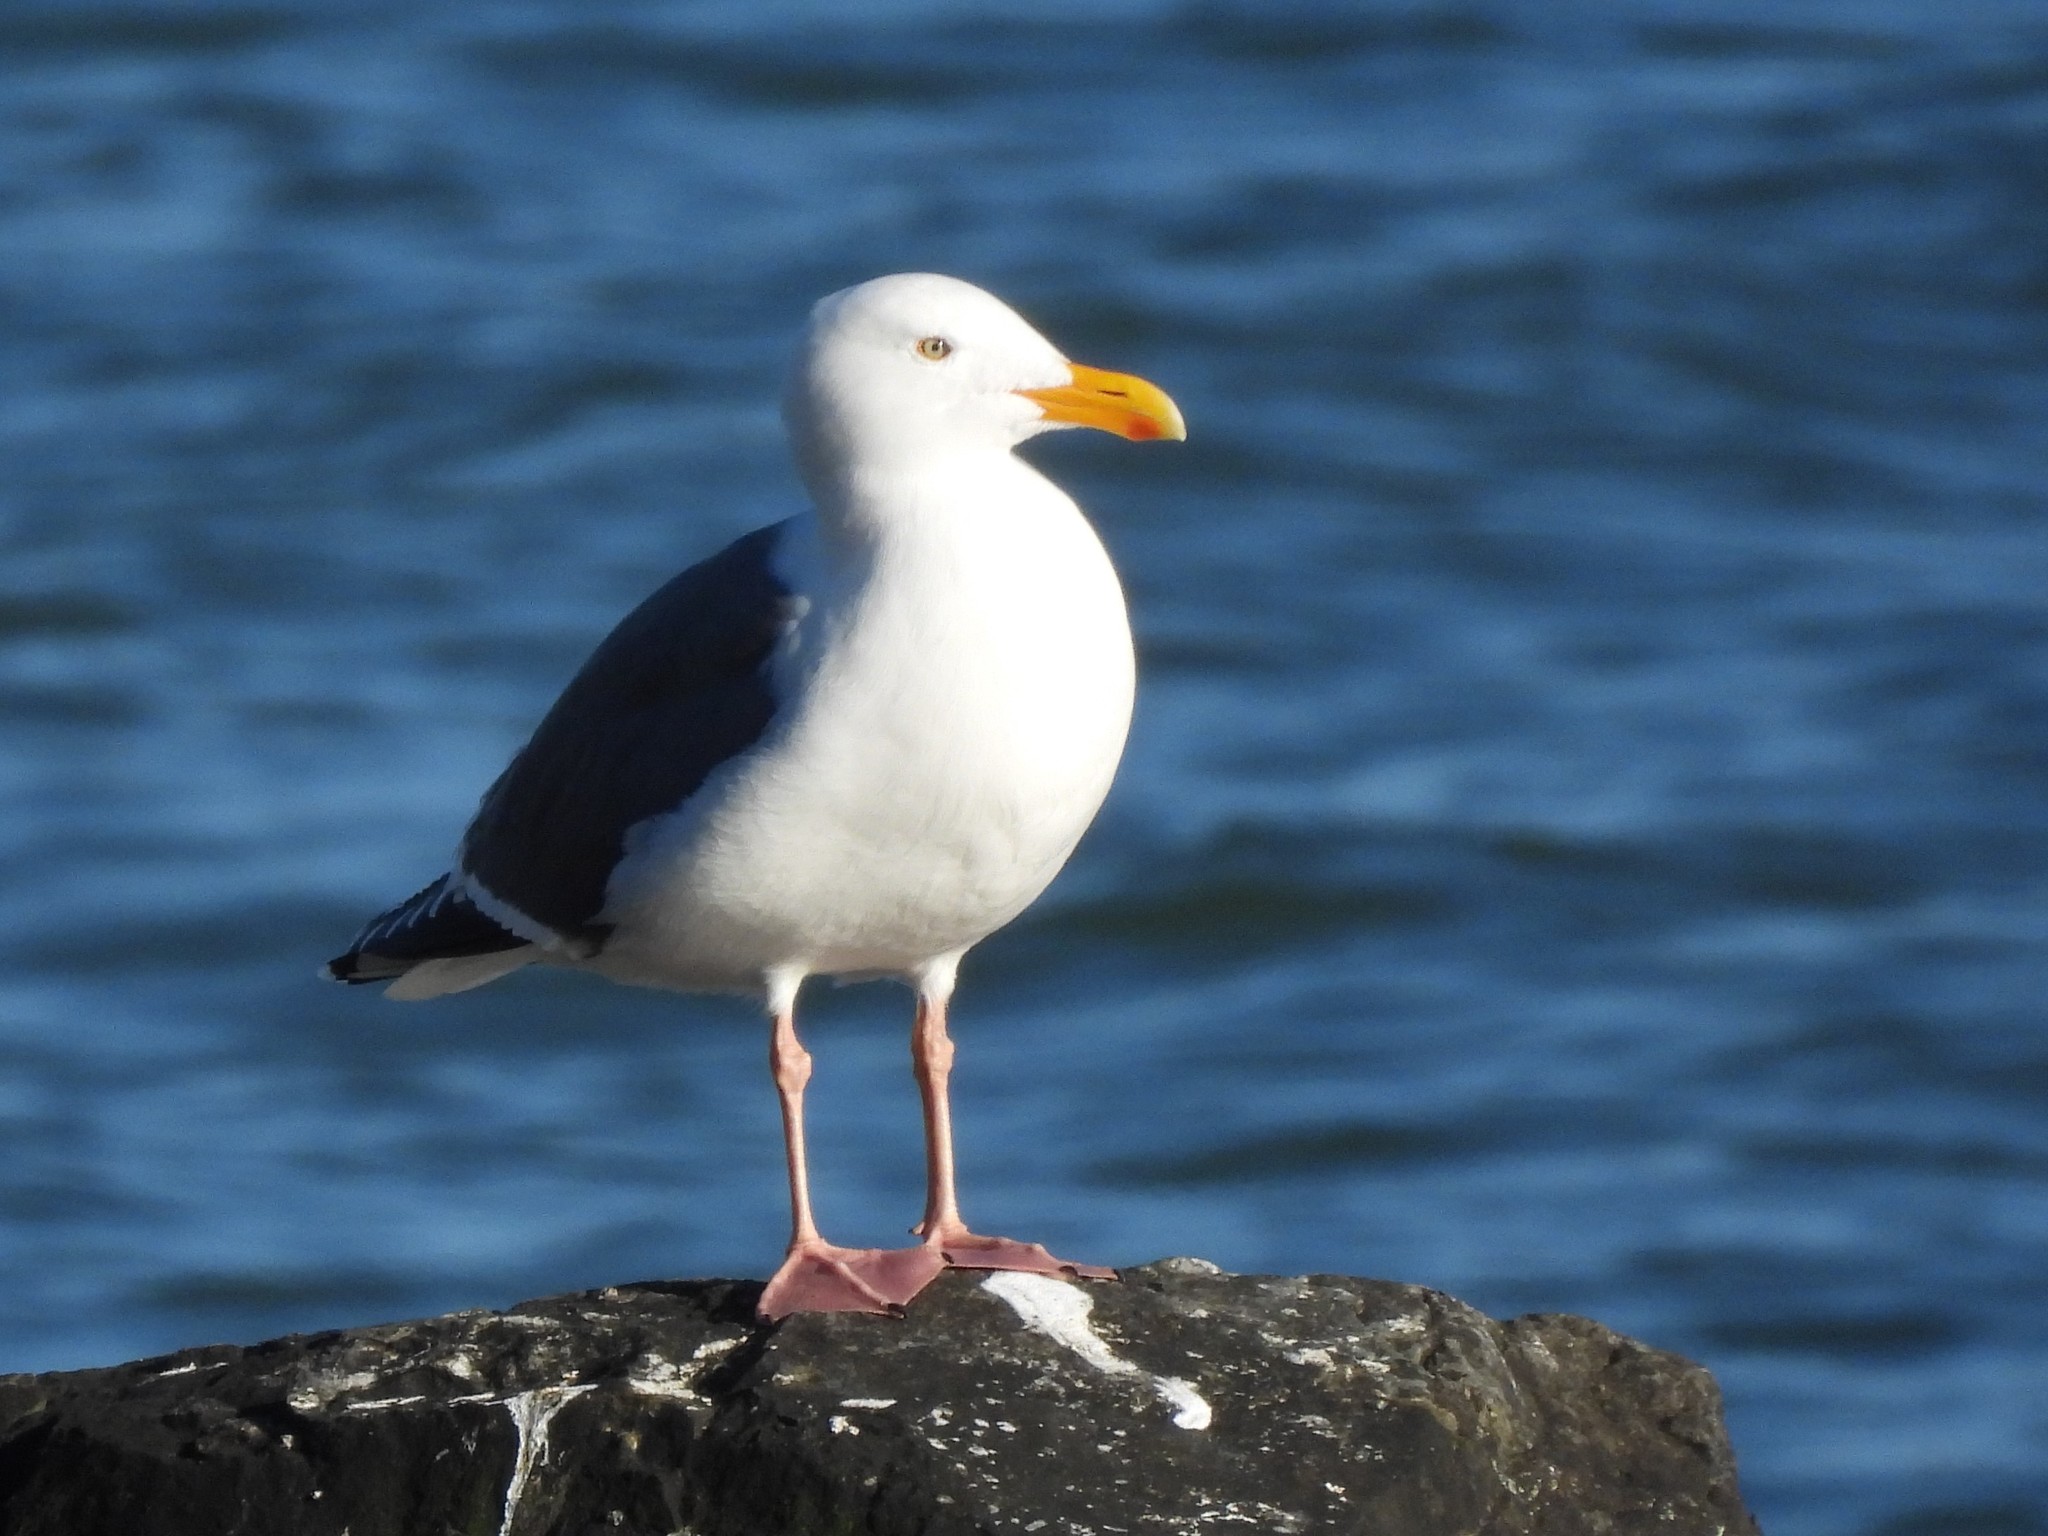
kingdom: Animalia
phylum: Chordata
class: Aves
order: Charadriiformes
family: Laridae
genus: Larus
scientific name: Larus occidentalis
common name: Western gull
